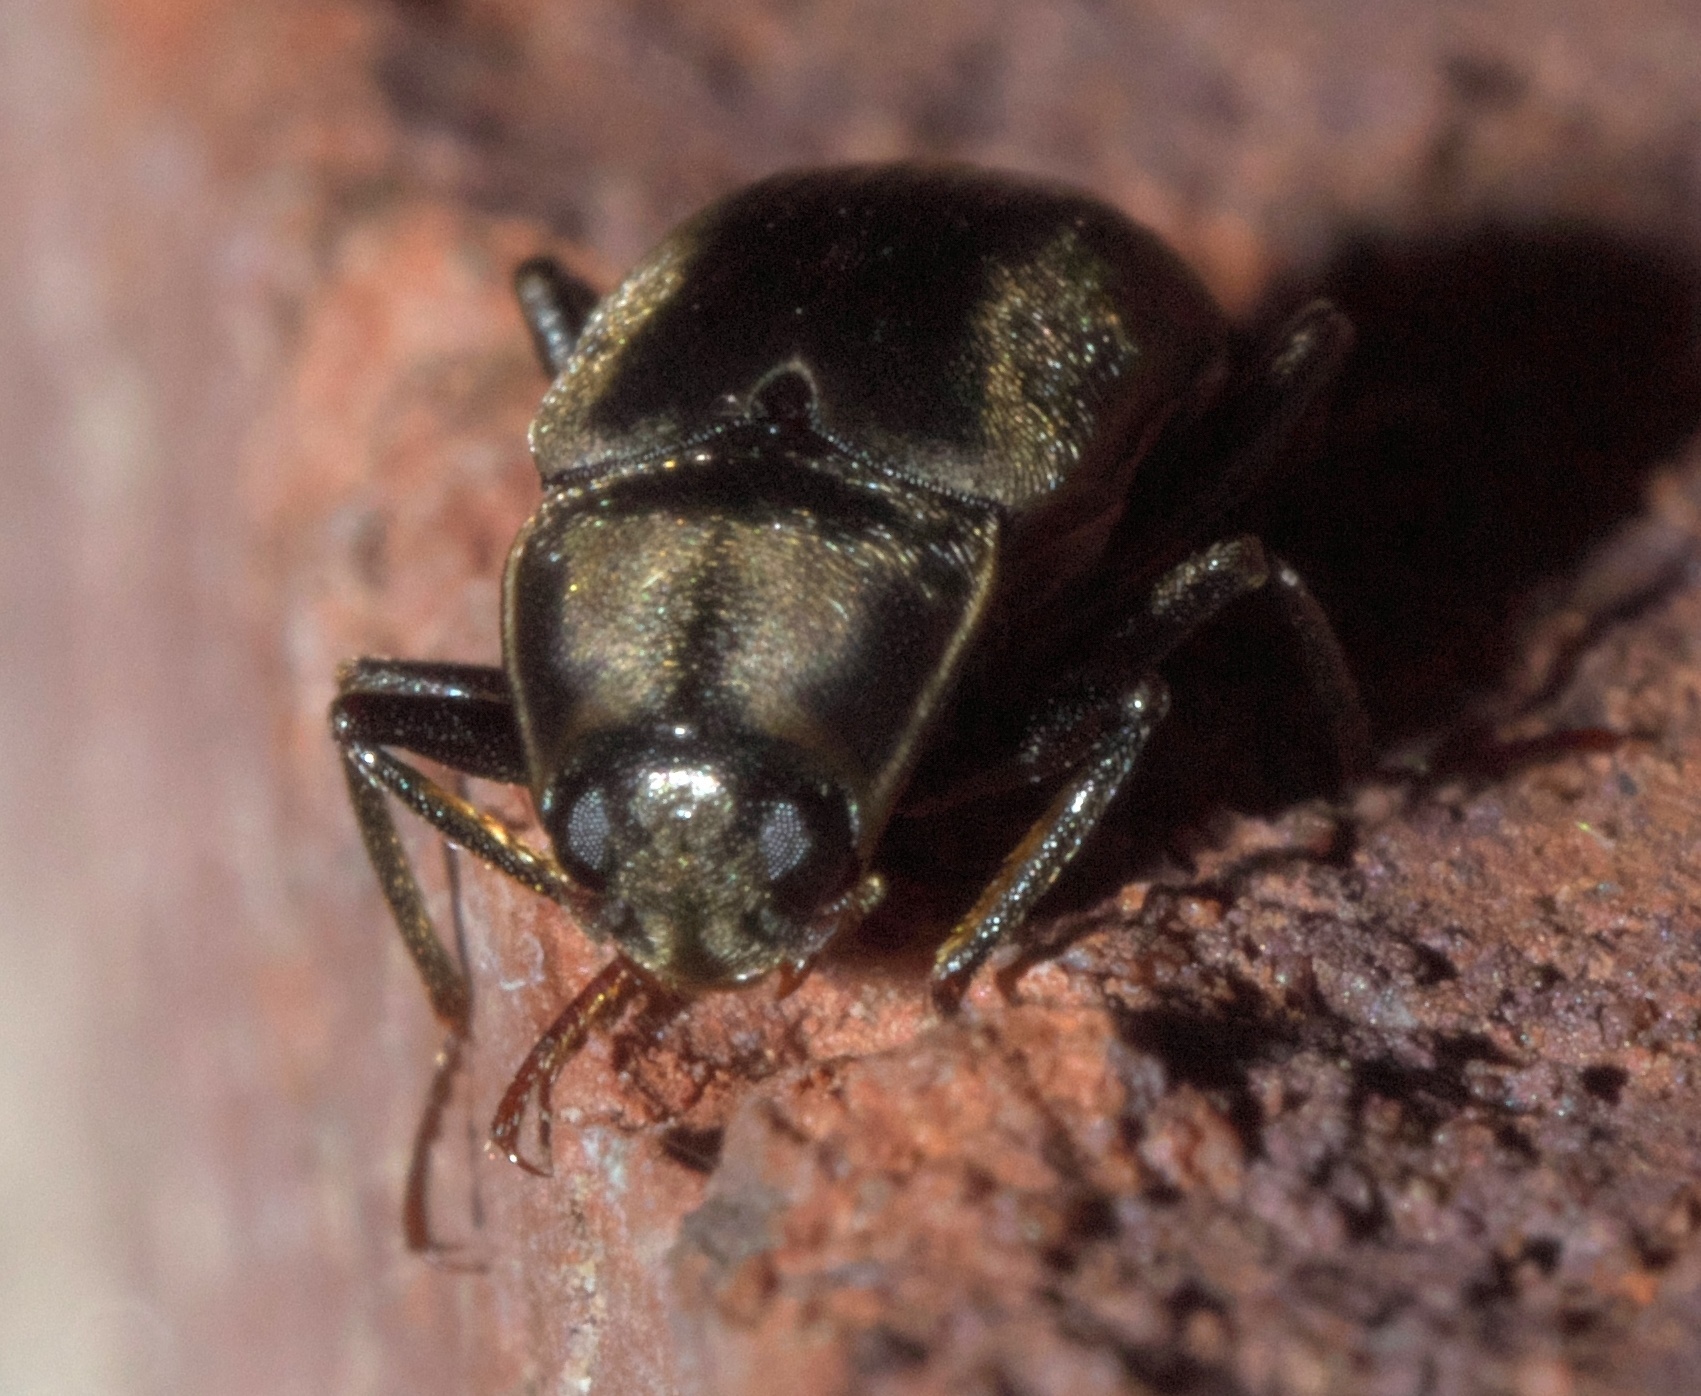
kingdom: Animalia
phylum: Arthropoda
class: Insecta
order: Coleoptera
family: Dryopidae
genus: Helichus
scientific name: Helichus lithophilus
